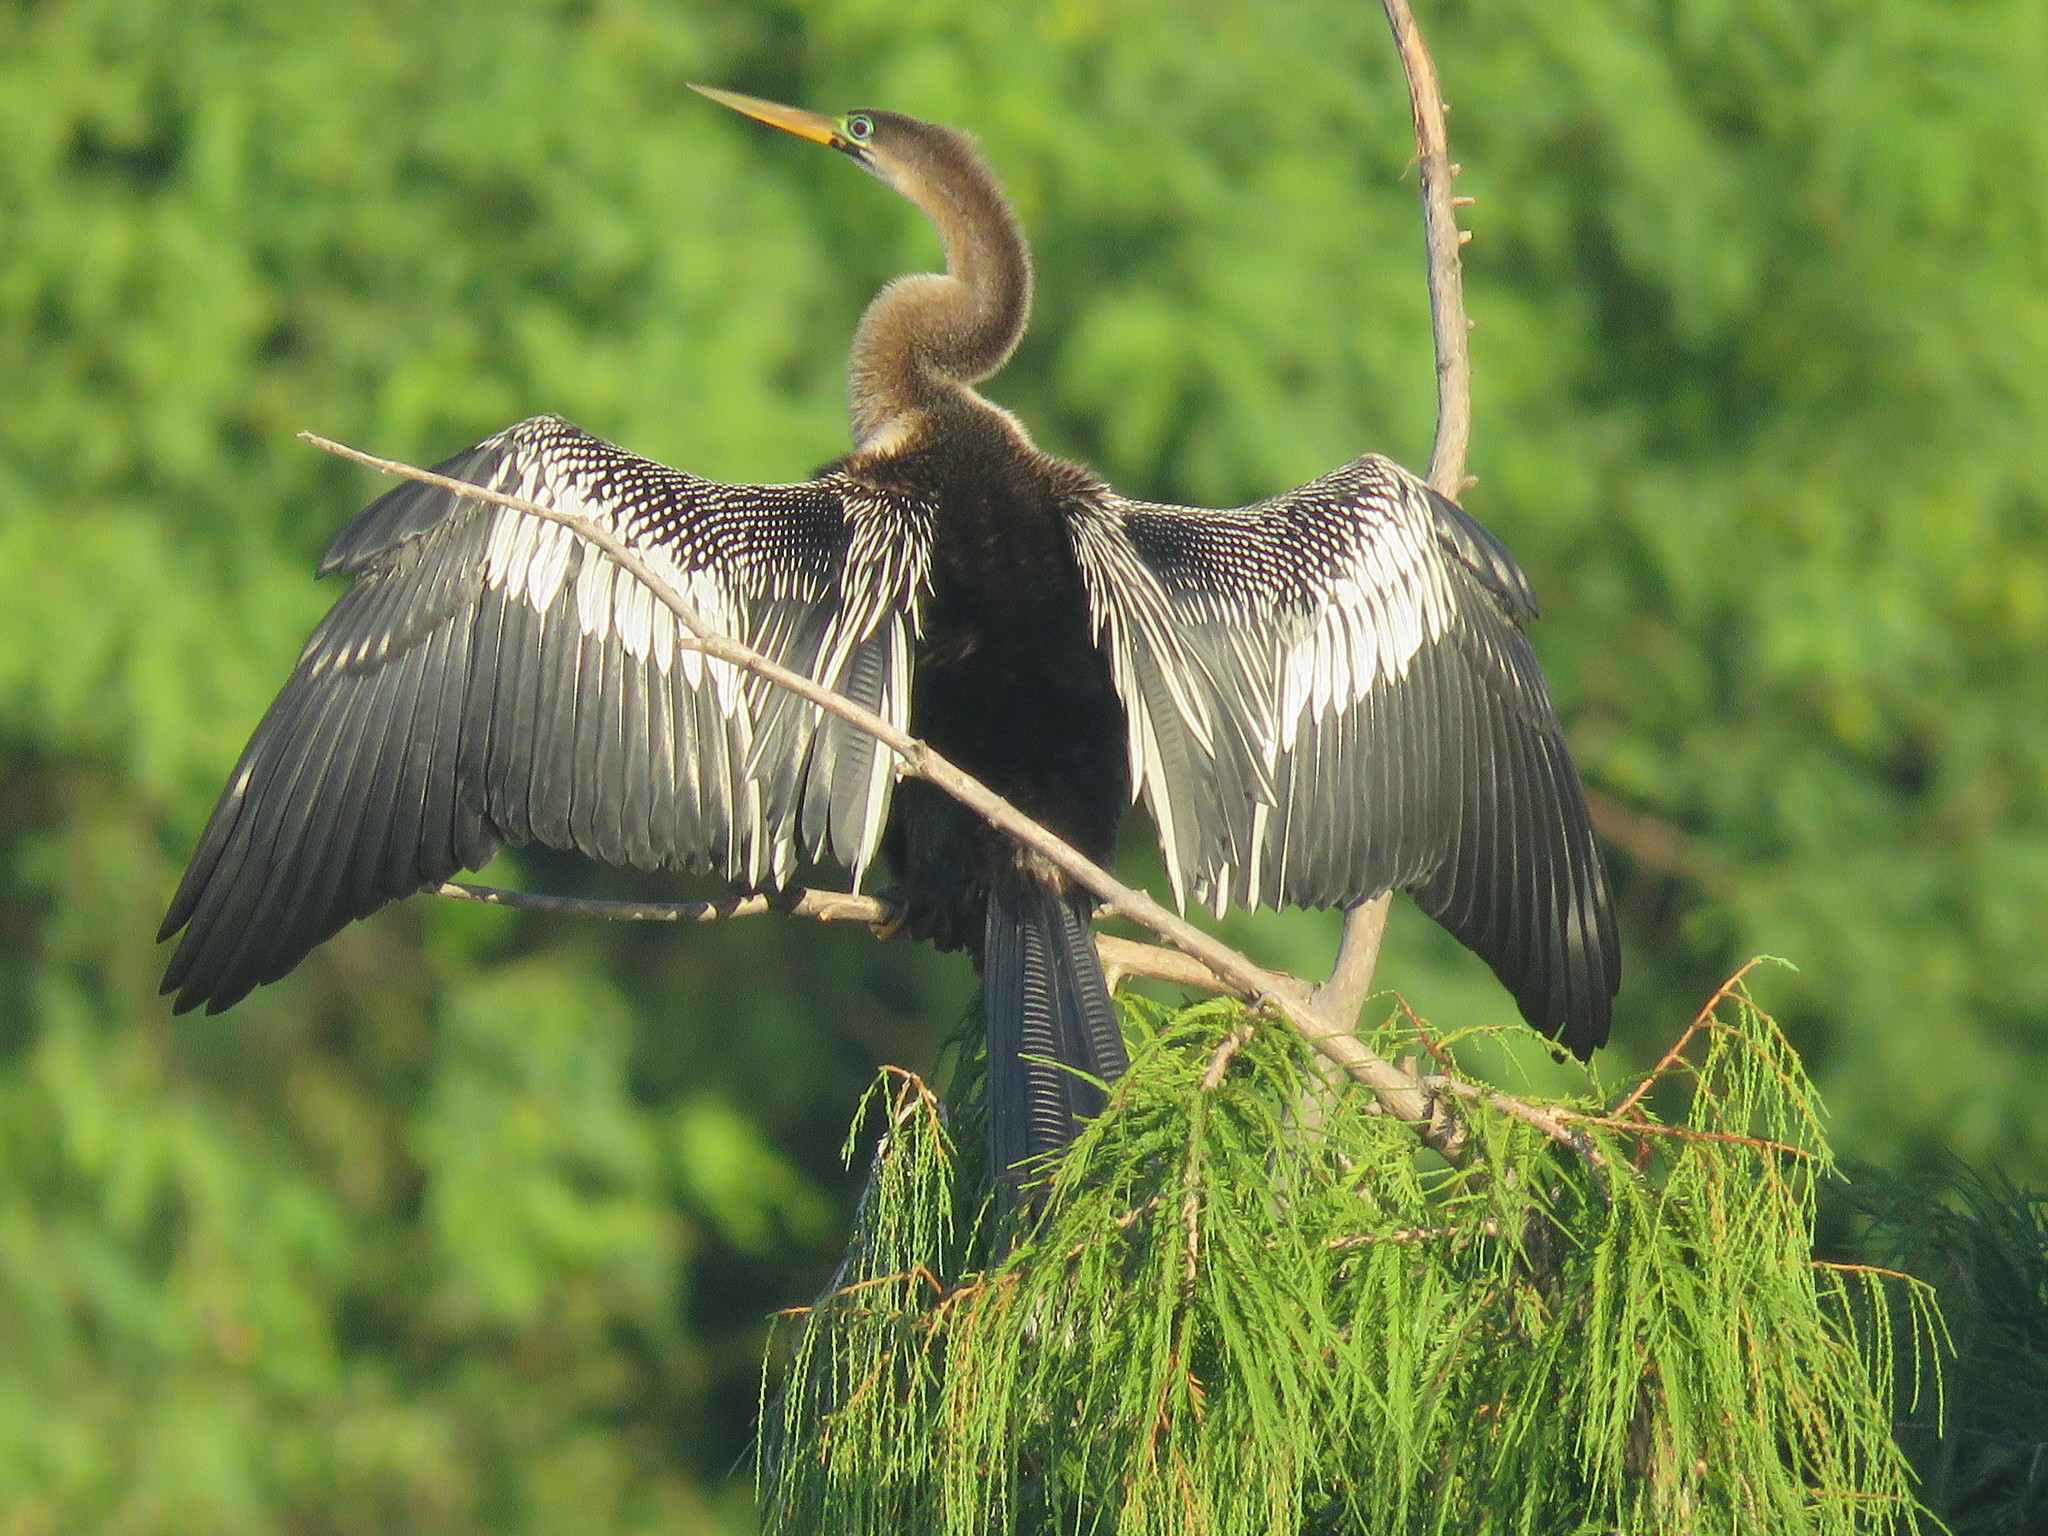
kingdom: Animalia
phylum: Chordata
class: Aves
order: Suliformes
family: Anhingidae
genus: Anhinga
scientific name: Anhinga anhinga
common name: Anhinga
